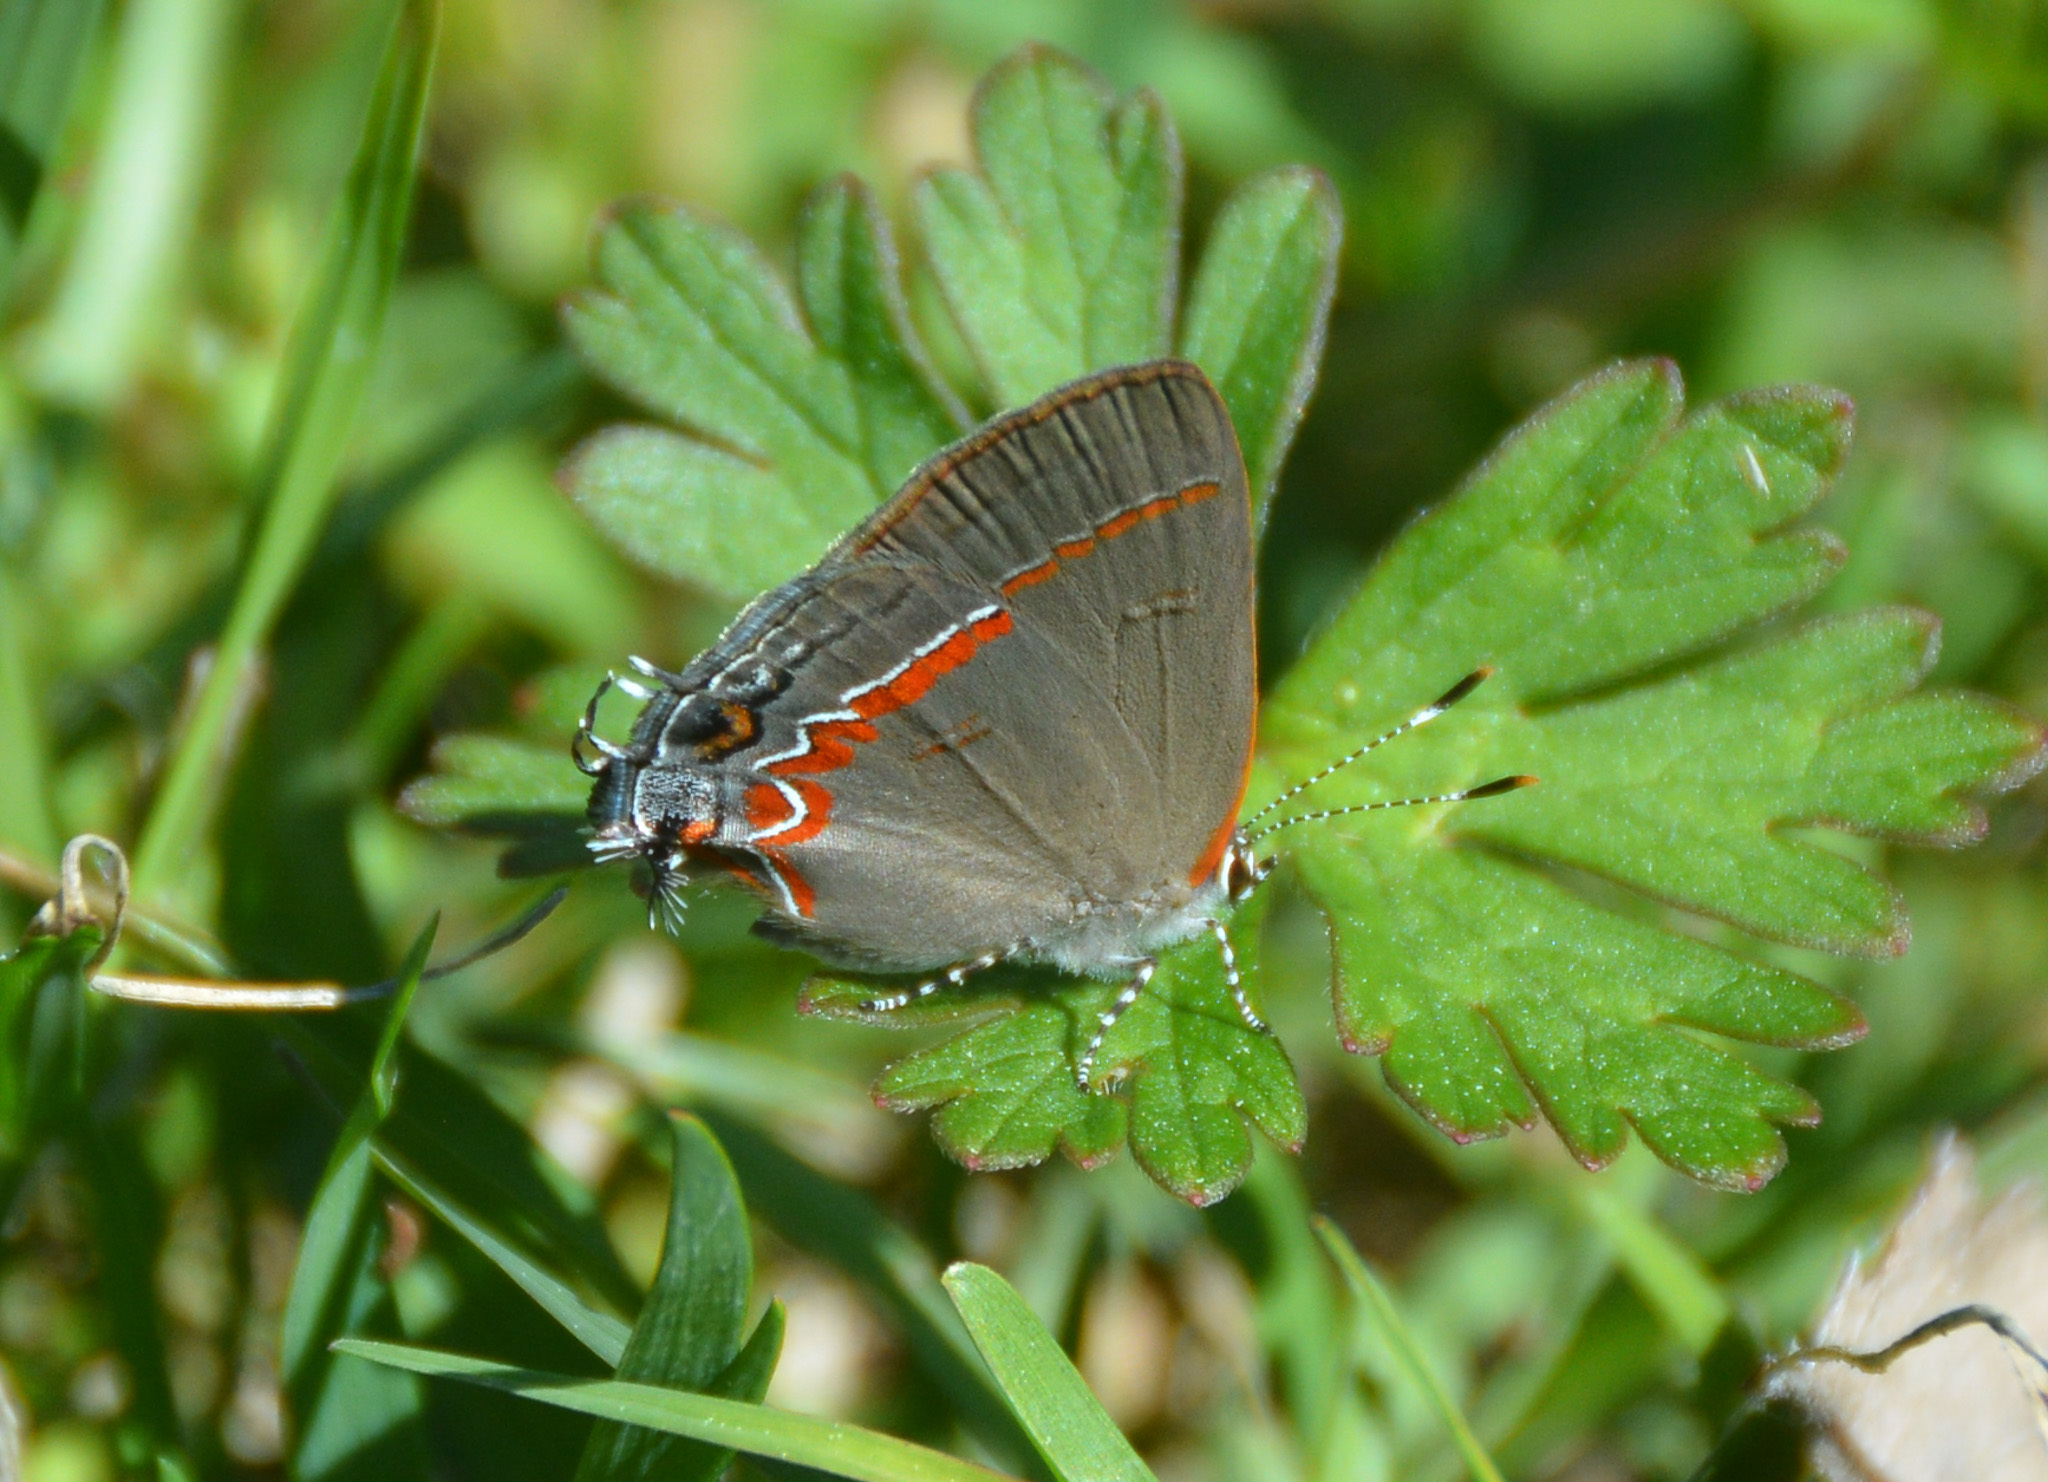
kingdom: Animalia
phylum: Arthropoda
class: Insecta
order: Lepidoptera
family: Lycaenidae
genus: Calycopis
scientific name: Calycopis cecrops
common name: Red-banded hairstreak
